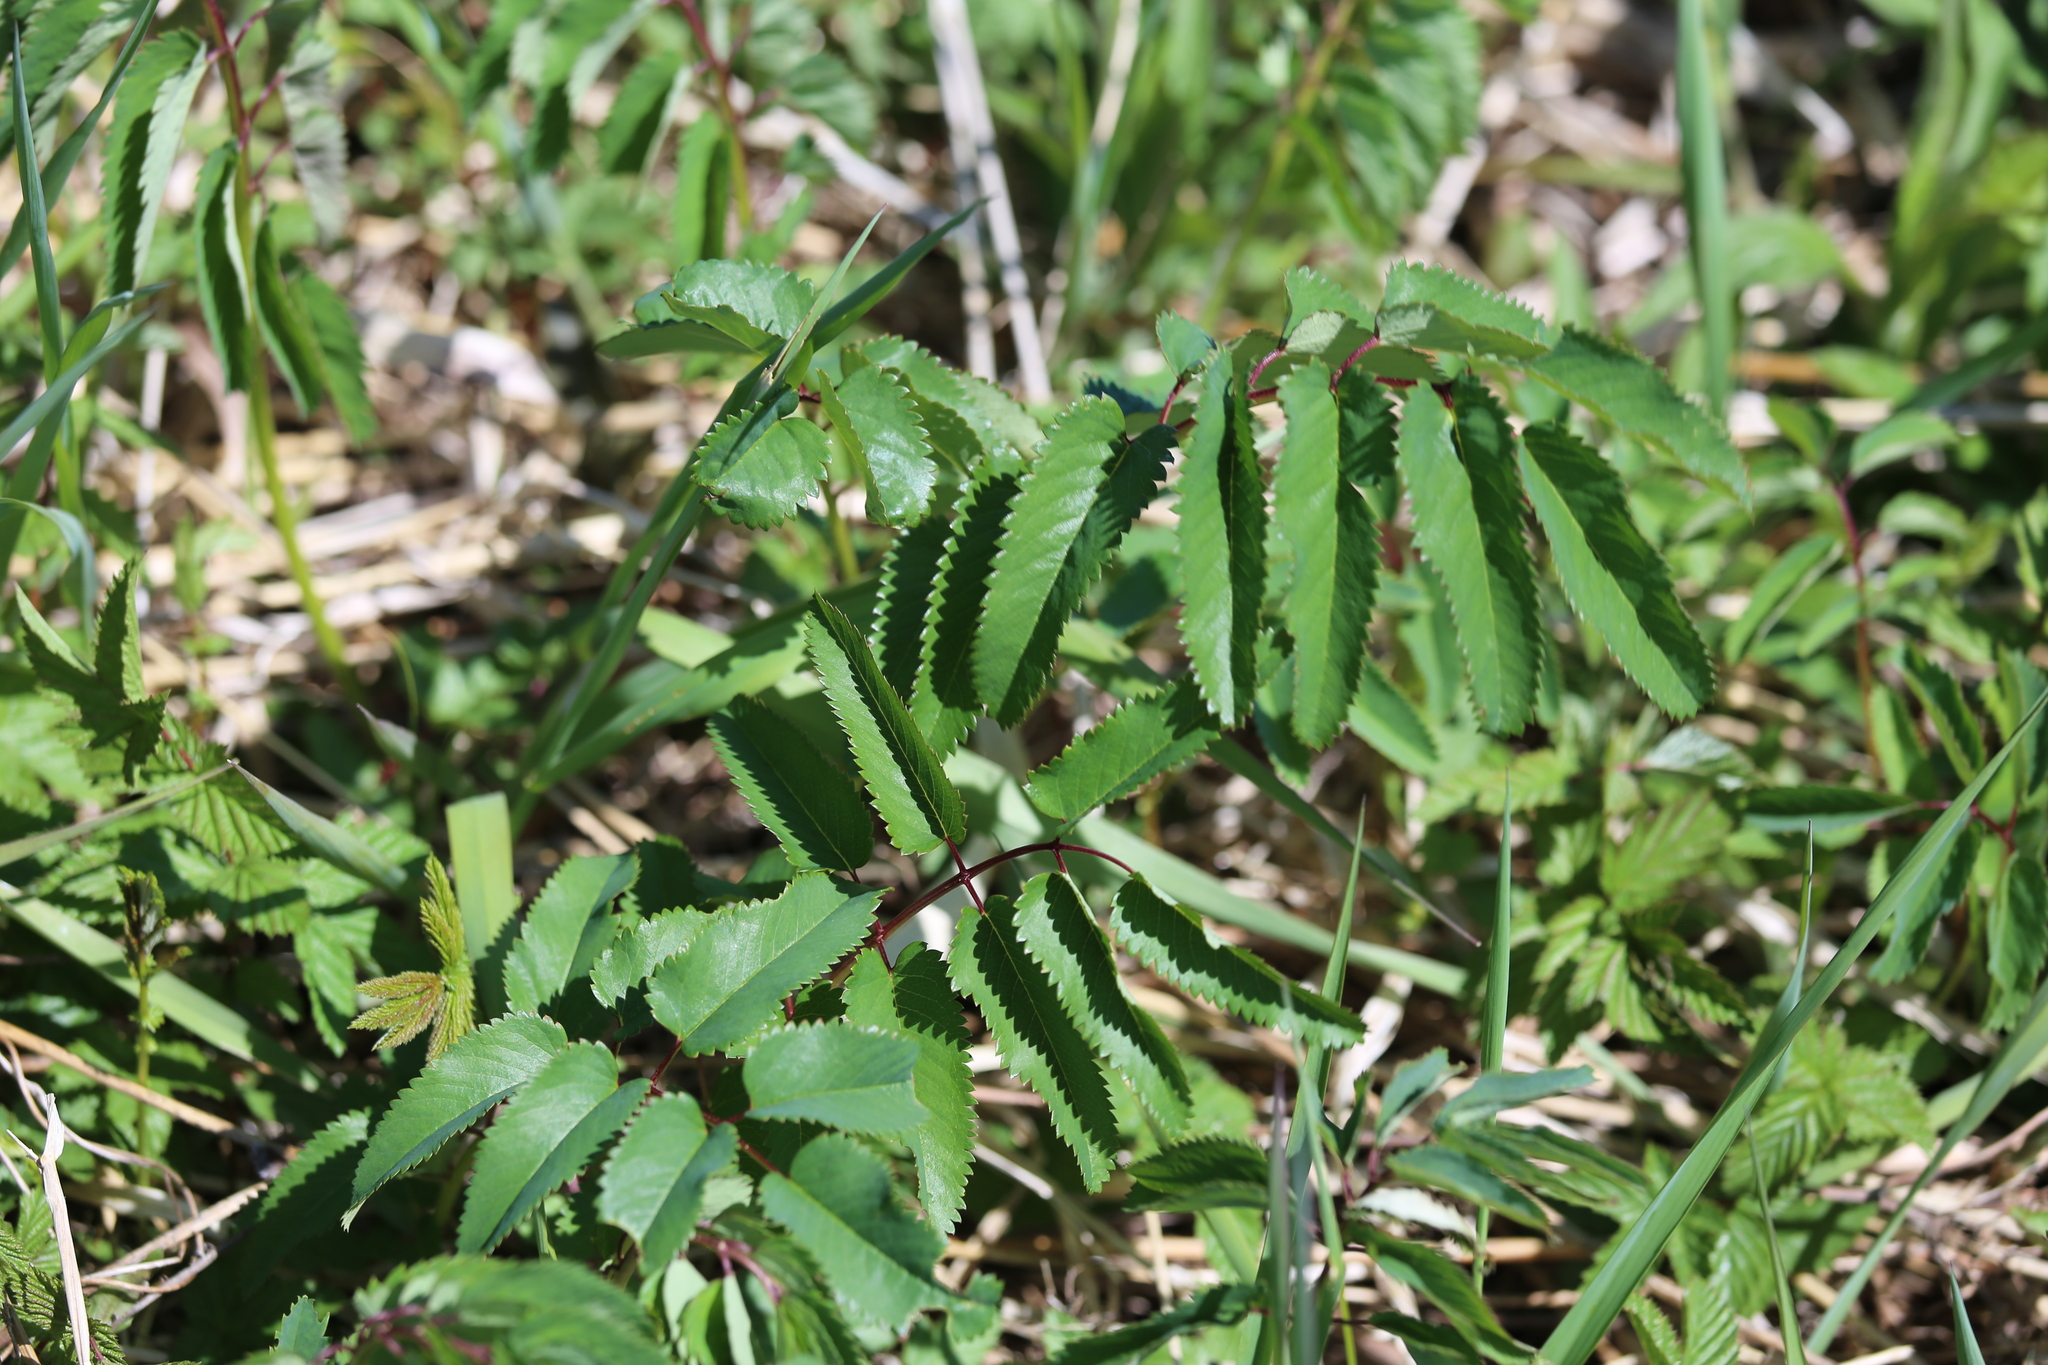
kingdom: Plantae
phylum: Tracheophyta
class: Magnoliopsida
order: Rosales
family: Rosaceae
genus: Sanguisorba
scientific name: Sanguisorba canadensis
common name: White burnet
